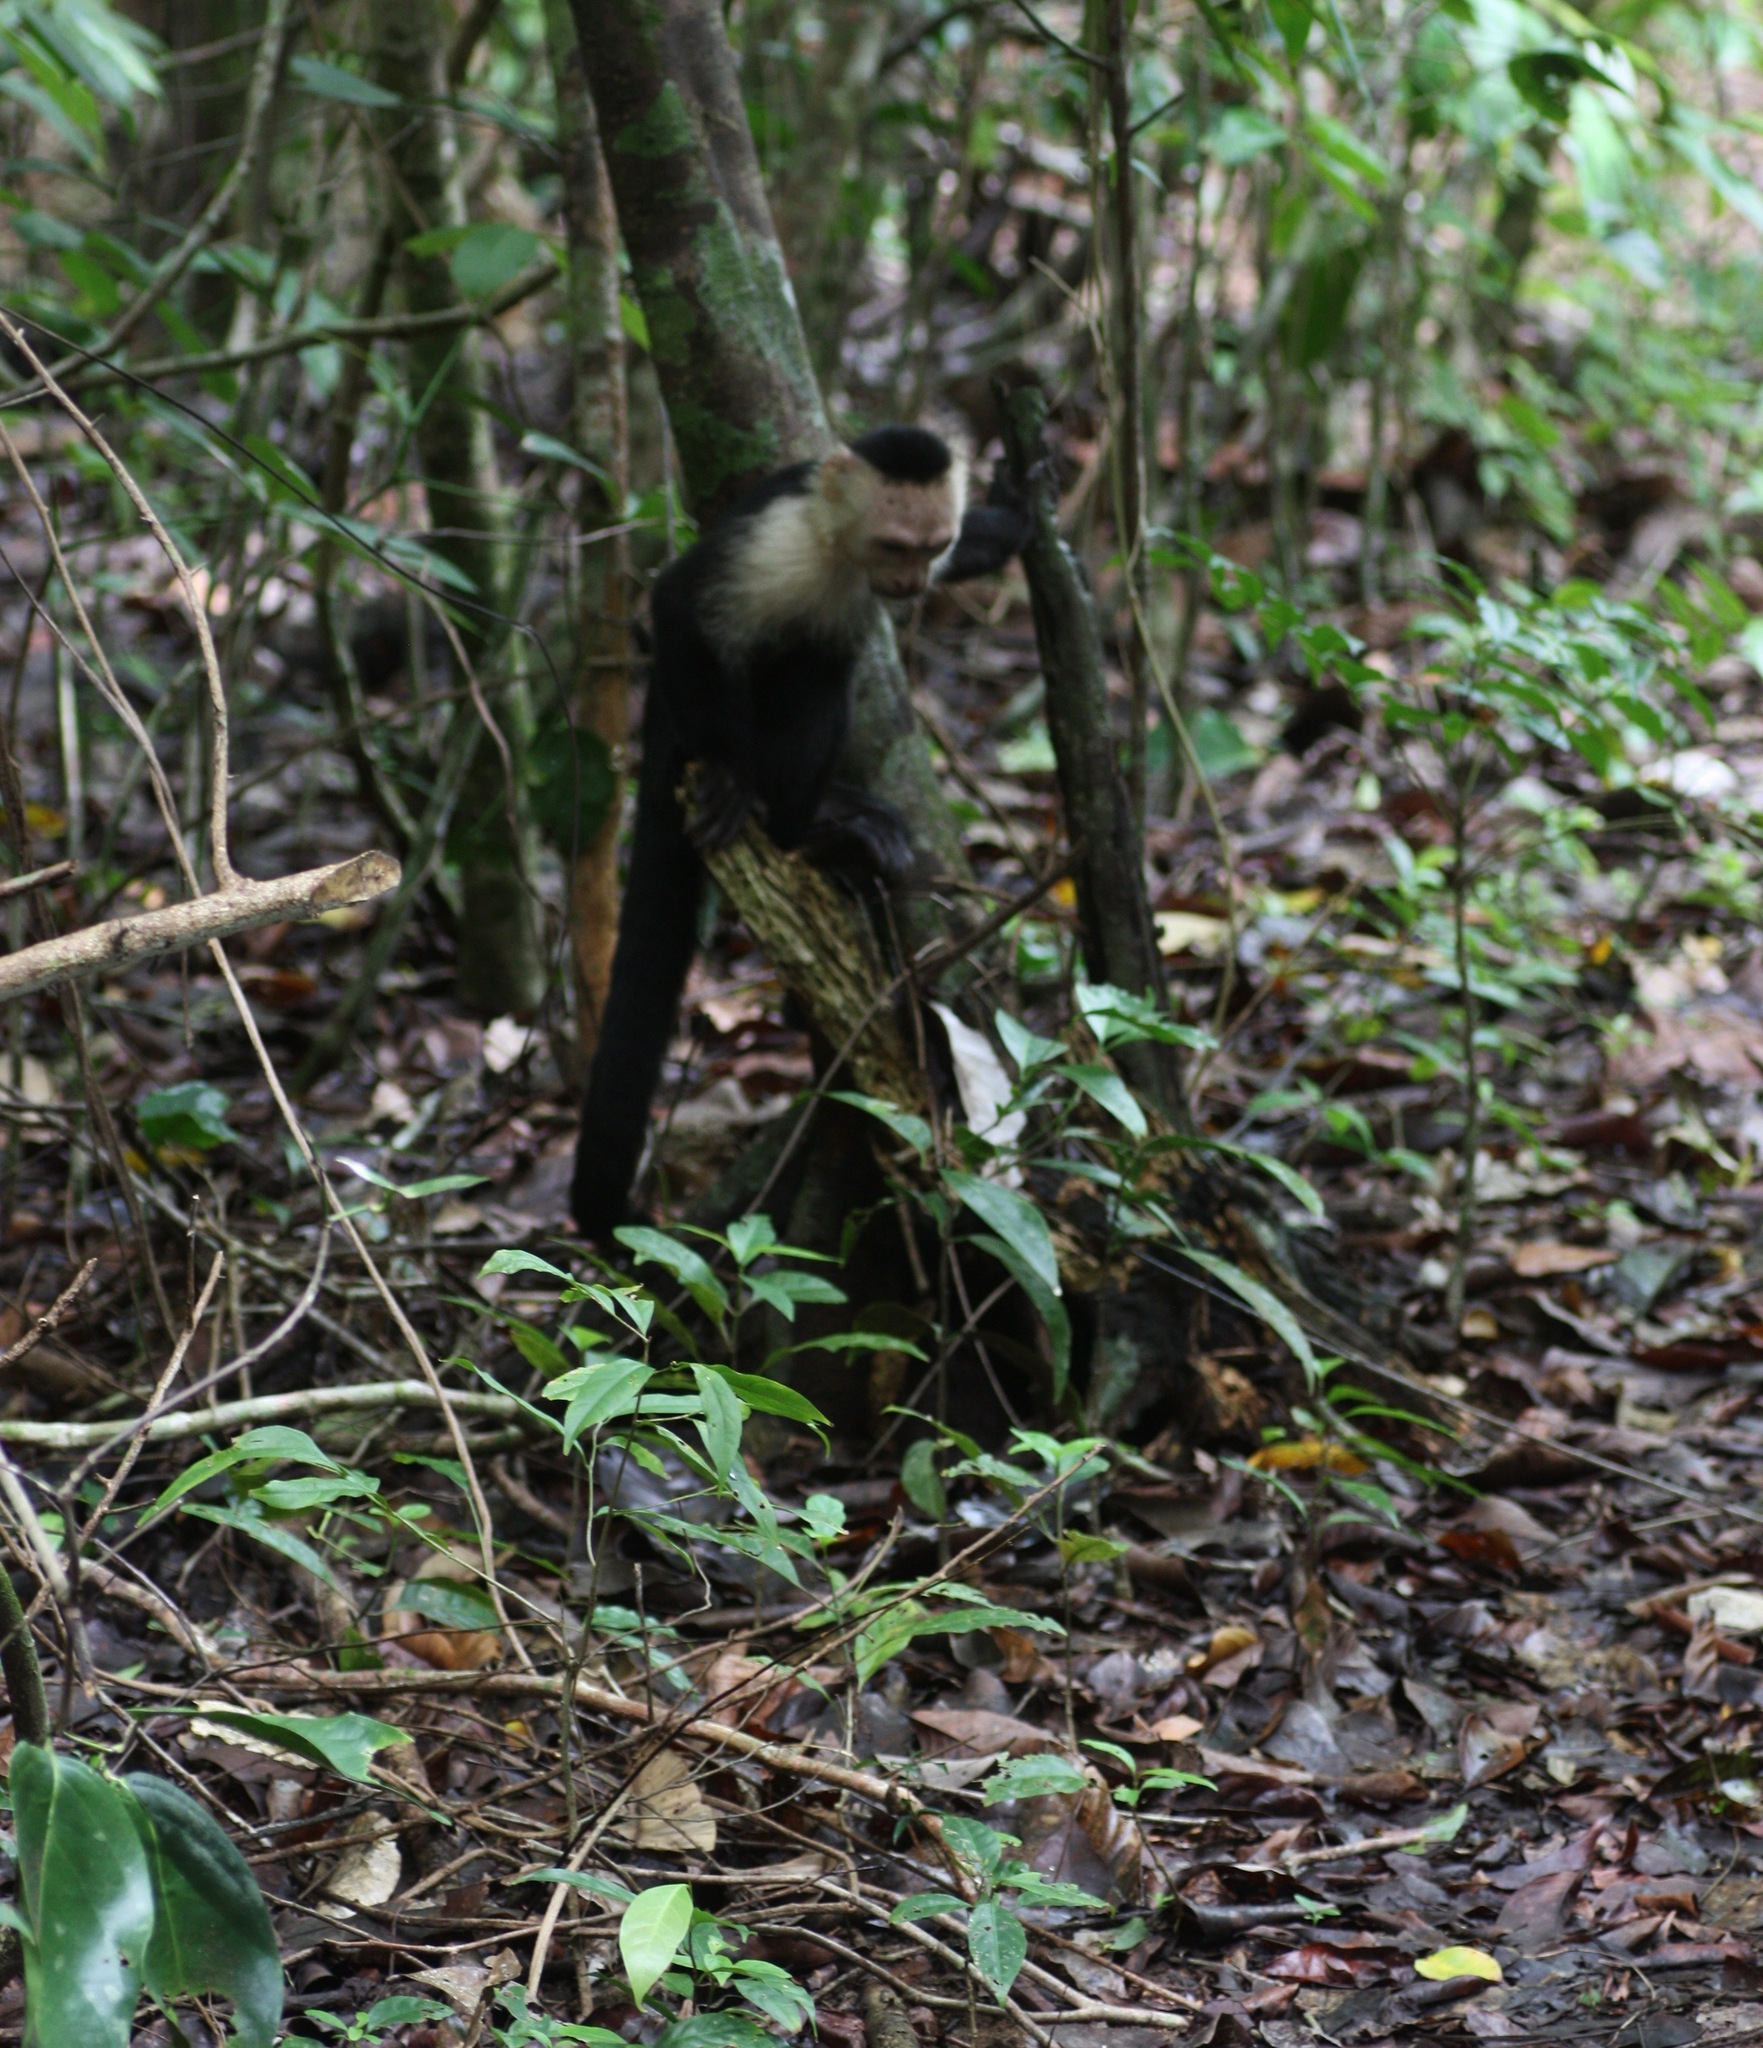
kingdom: Animalia
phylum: Chordata
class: Mammalia
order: Primates
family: Cebidae
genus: Cebus
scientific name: Cebus imitator
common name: Panamanian white-faced capuchin
